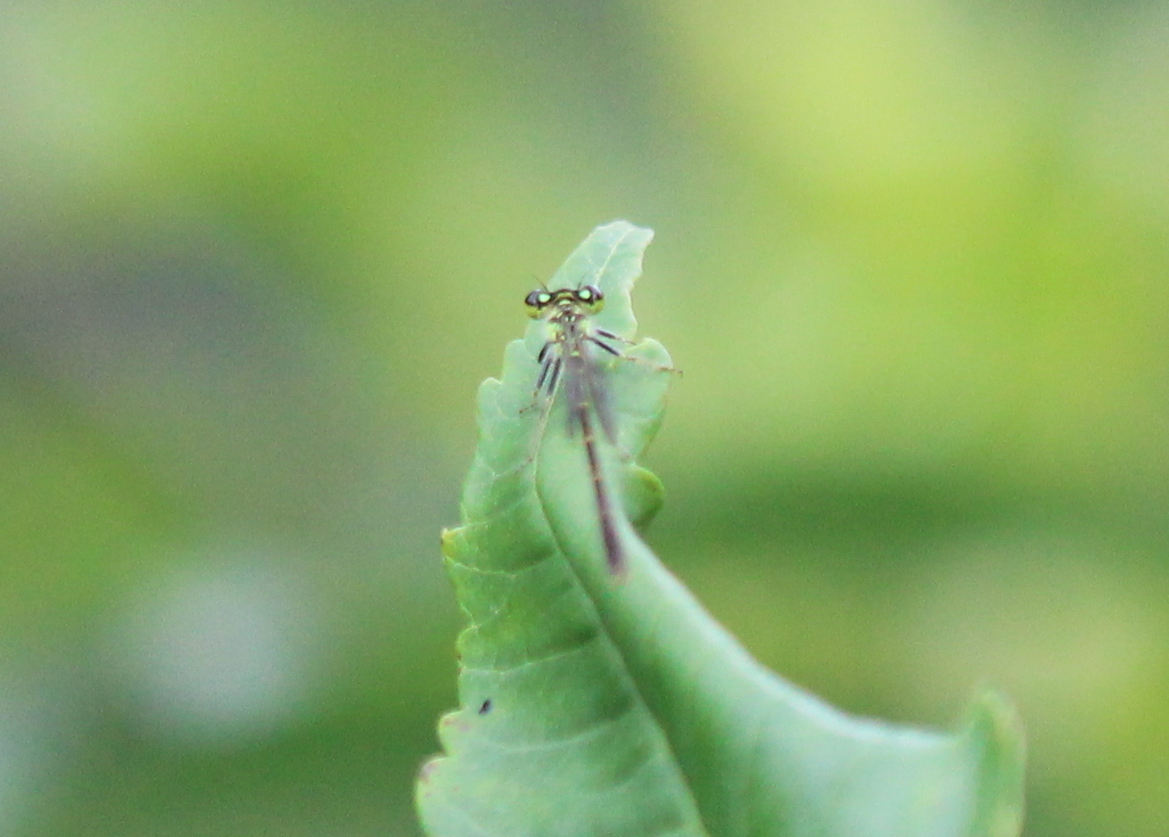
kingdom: Animalia
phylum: Arthropoda
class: Insecta
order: Odonata
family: Coenagrionidae
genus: Ischnura
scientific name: Ischnura posita
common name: Fragile forktail
